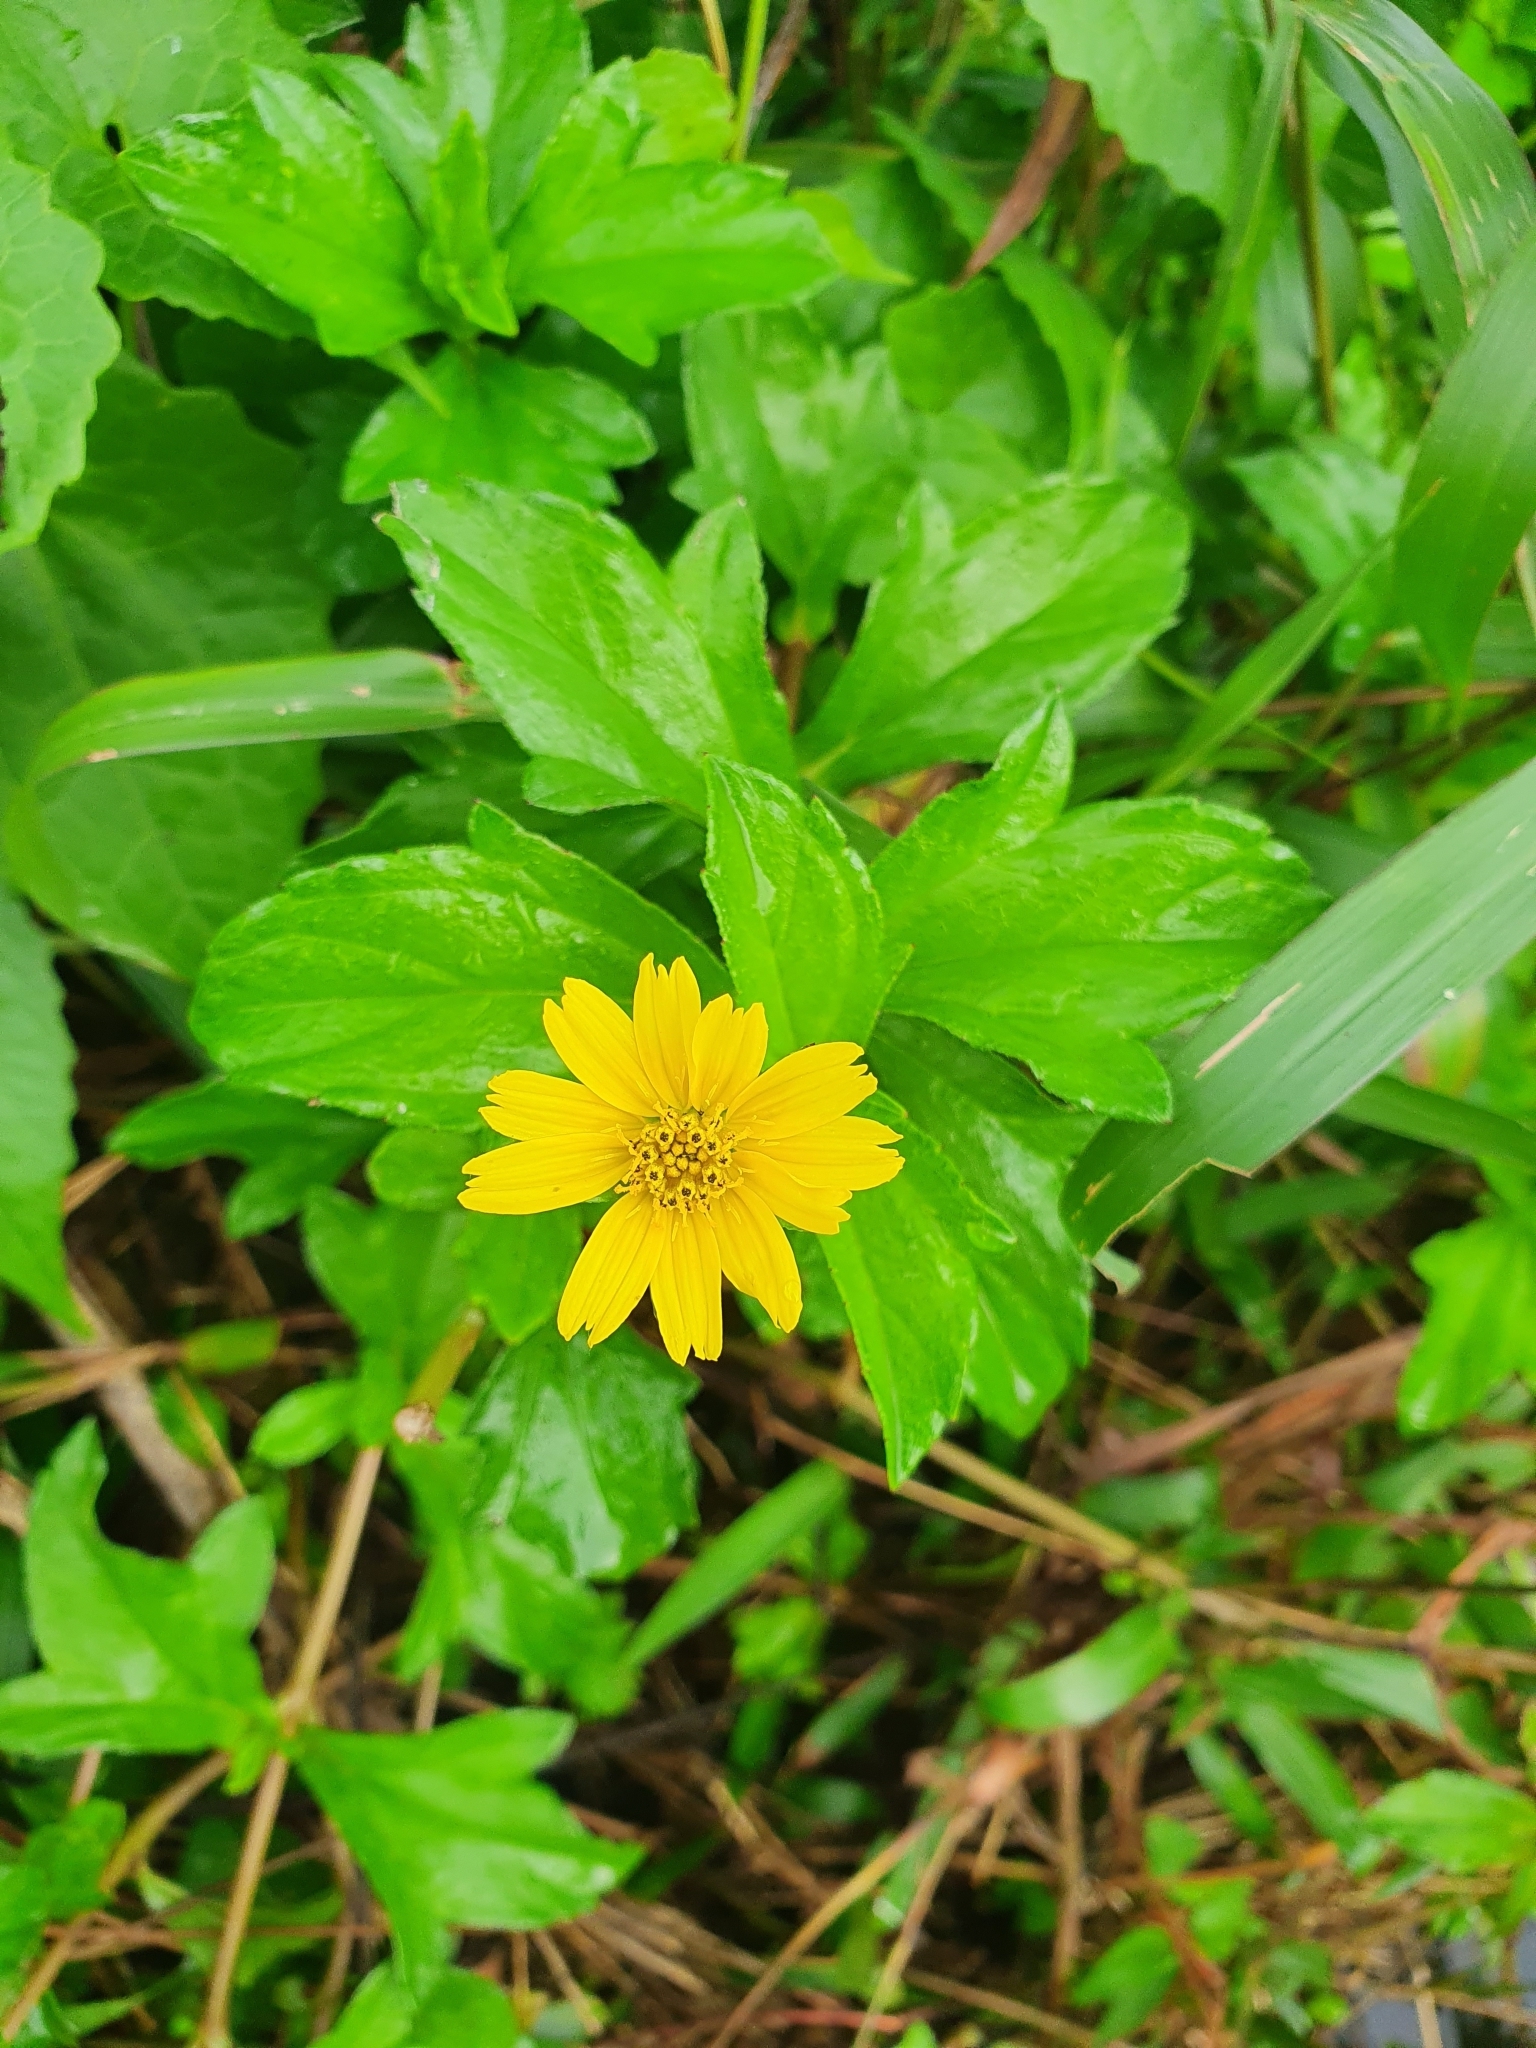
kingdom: Plantae
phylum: Tracheophyta
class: Magnoliopsida
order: Asterales
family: Asteraceae
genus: Sphagneticola
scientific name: Sphagneticola trilobata
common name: Bay biscayne creeping-oxeye
